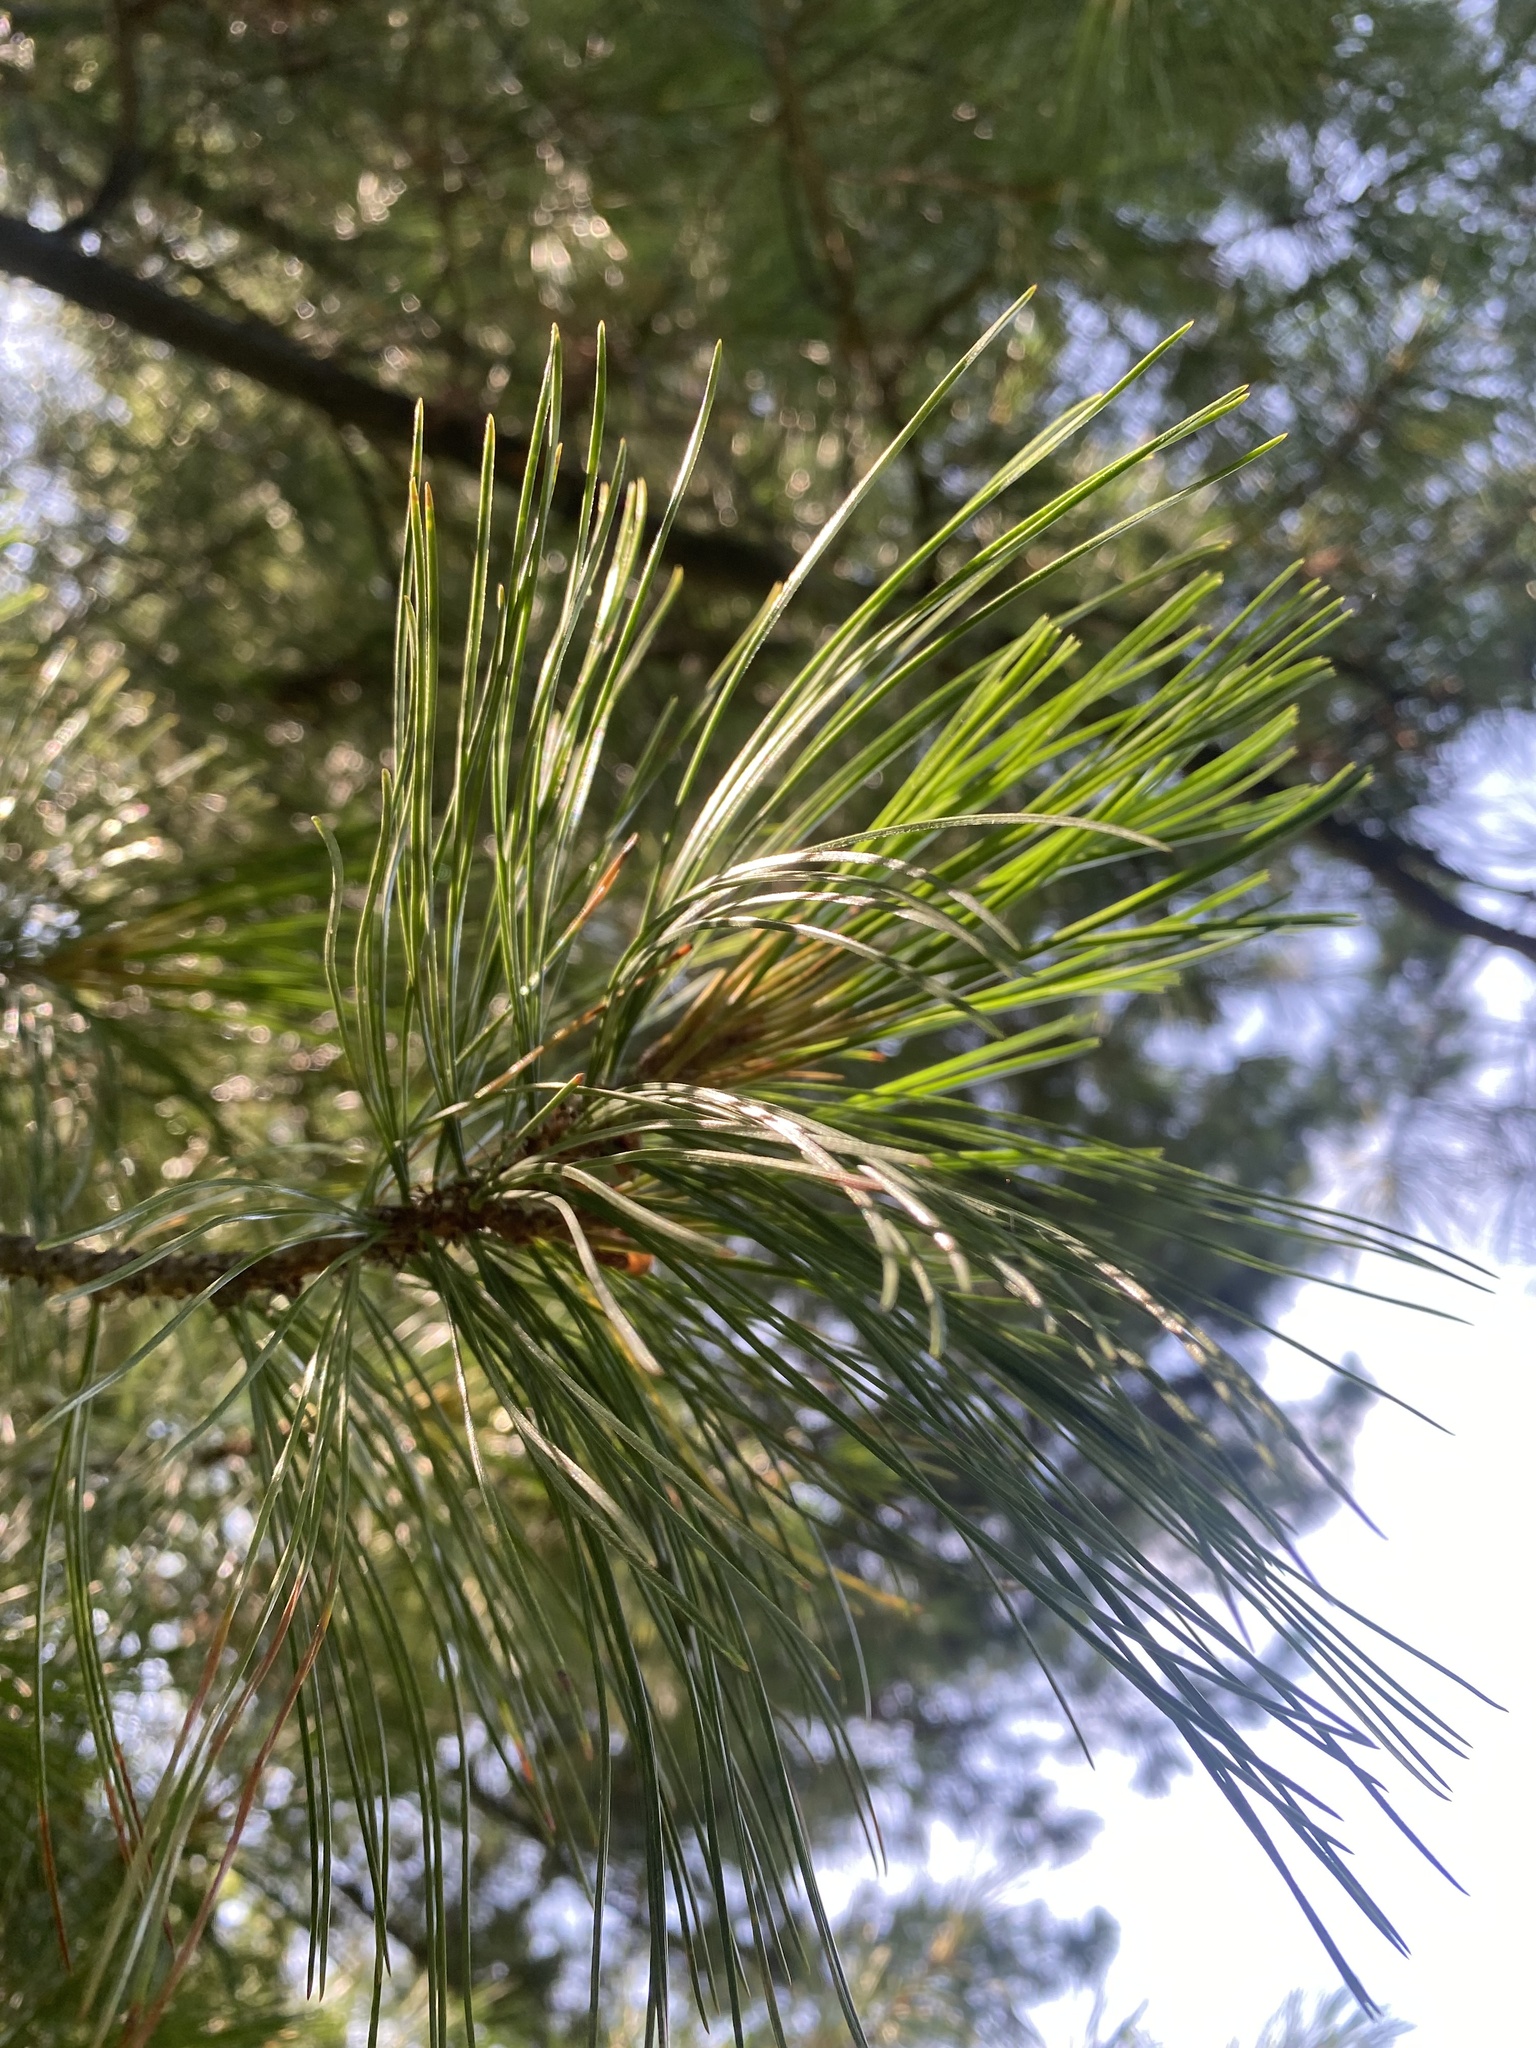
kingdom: Plantae
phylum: Tracheophyta
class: Pinopsida
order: Pinales
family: Pinaceae
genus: Pinus
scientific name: Pinus sibirica
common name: Siberian pine
